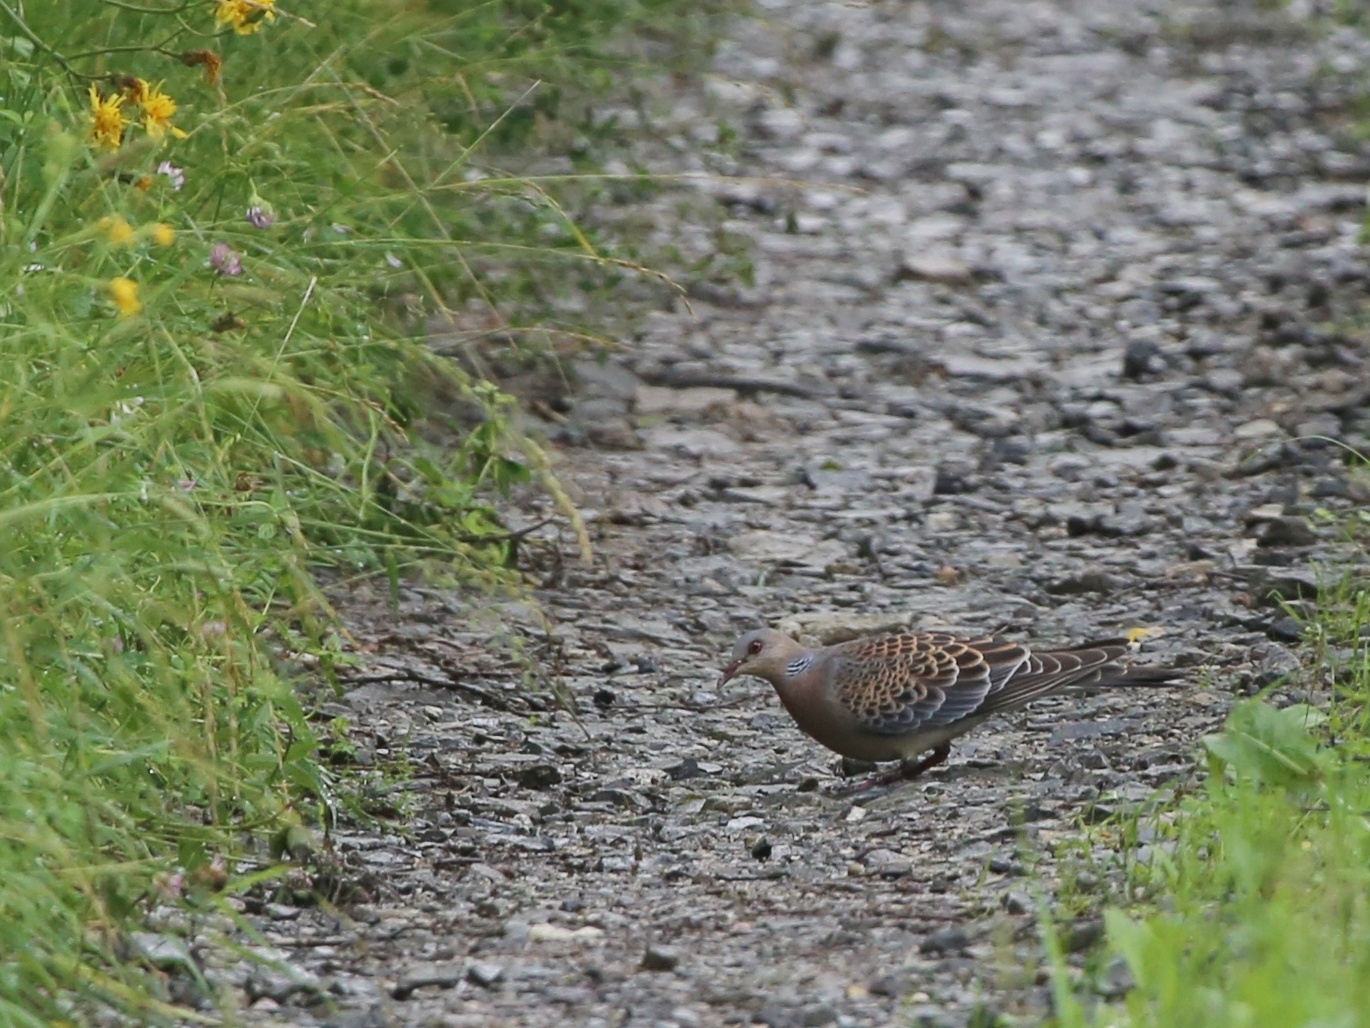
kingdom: Animalia
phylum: Chordata
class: Aves
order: Columbiformes
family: Columbidae
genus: Streptopelia
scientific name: Streptopelia orientalis
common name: Oriental turtle dove
